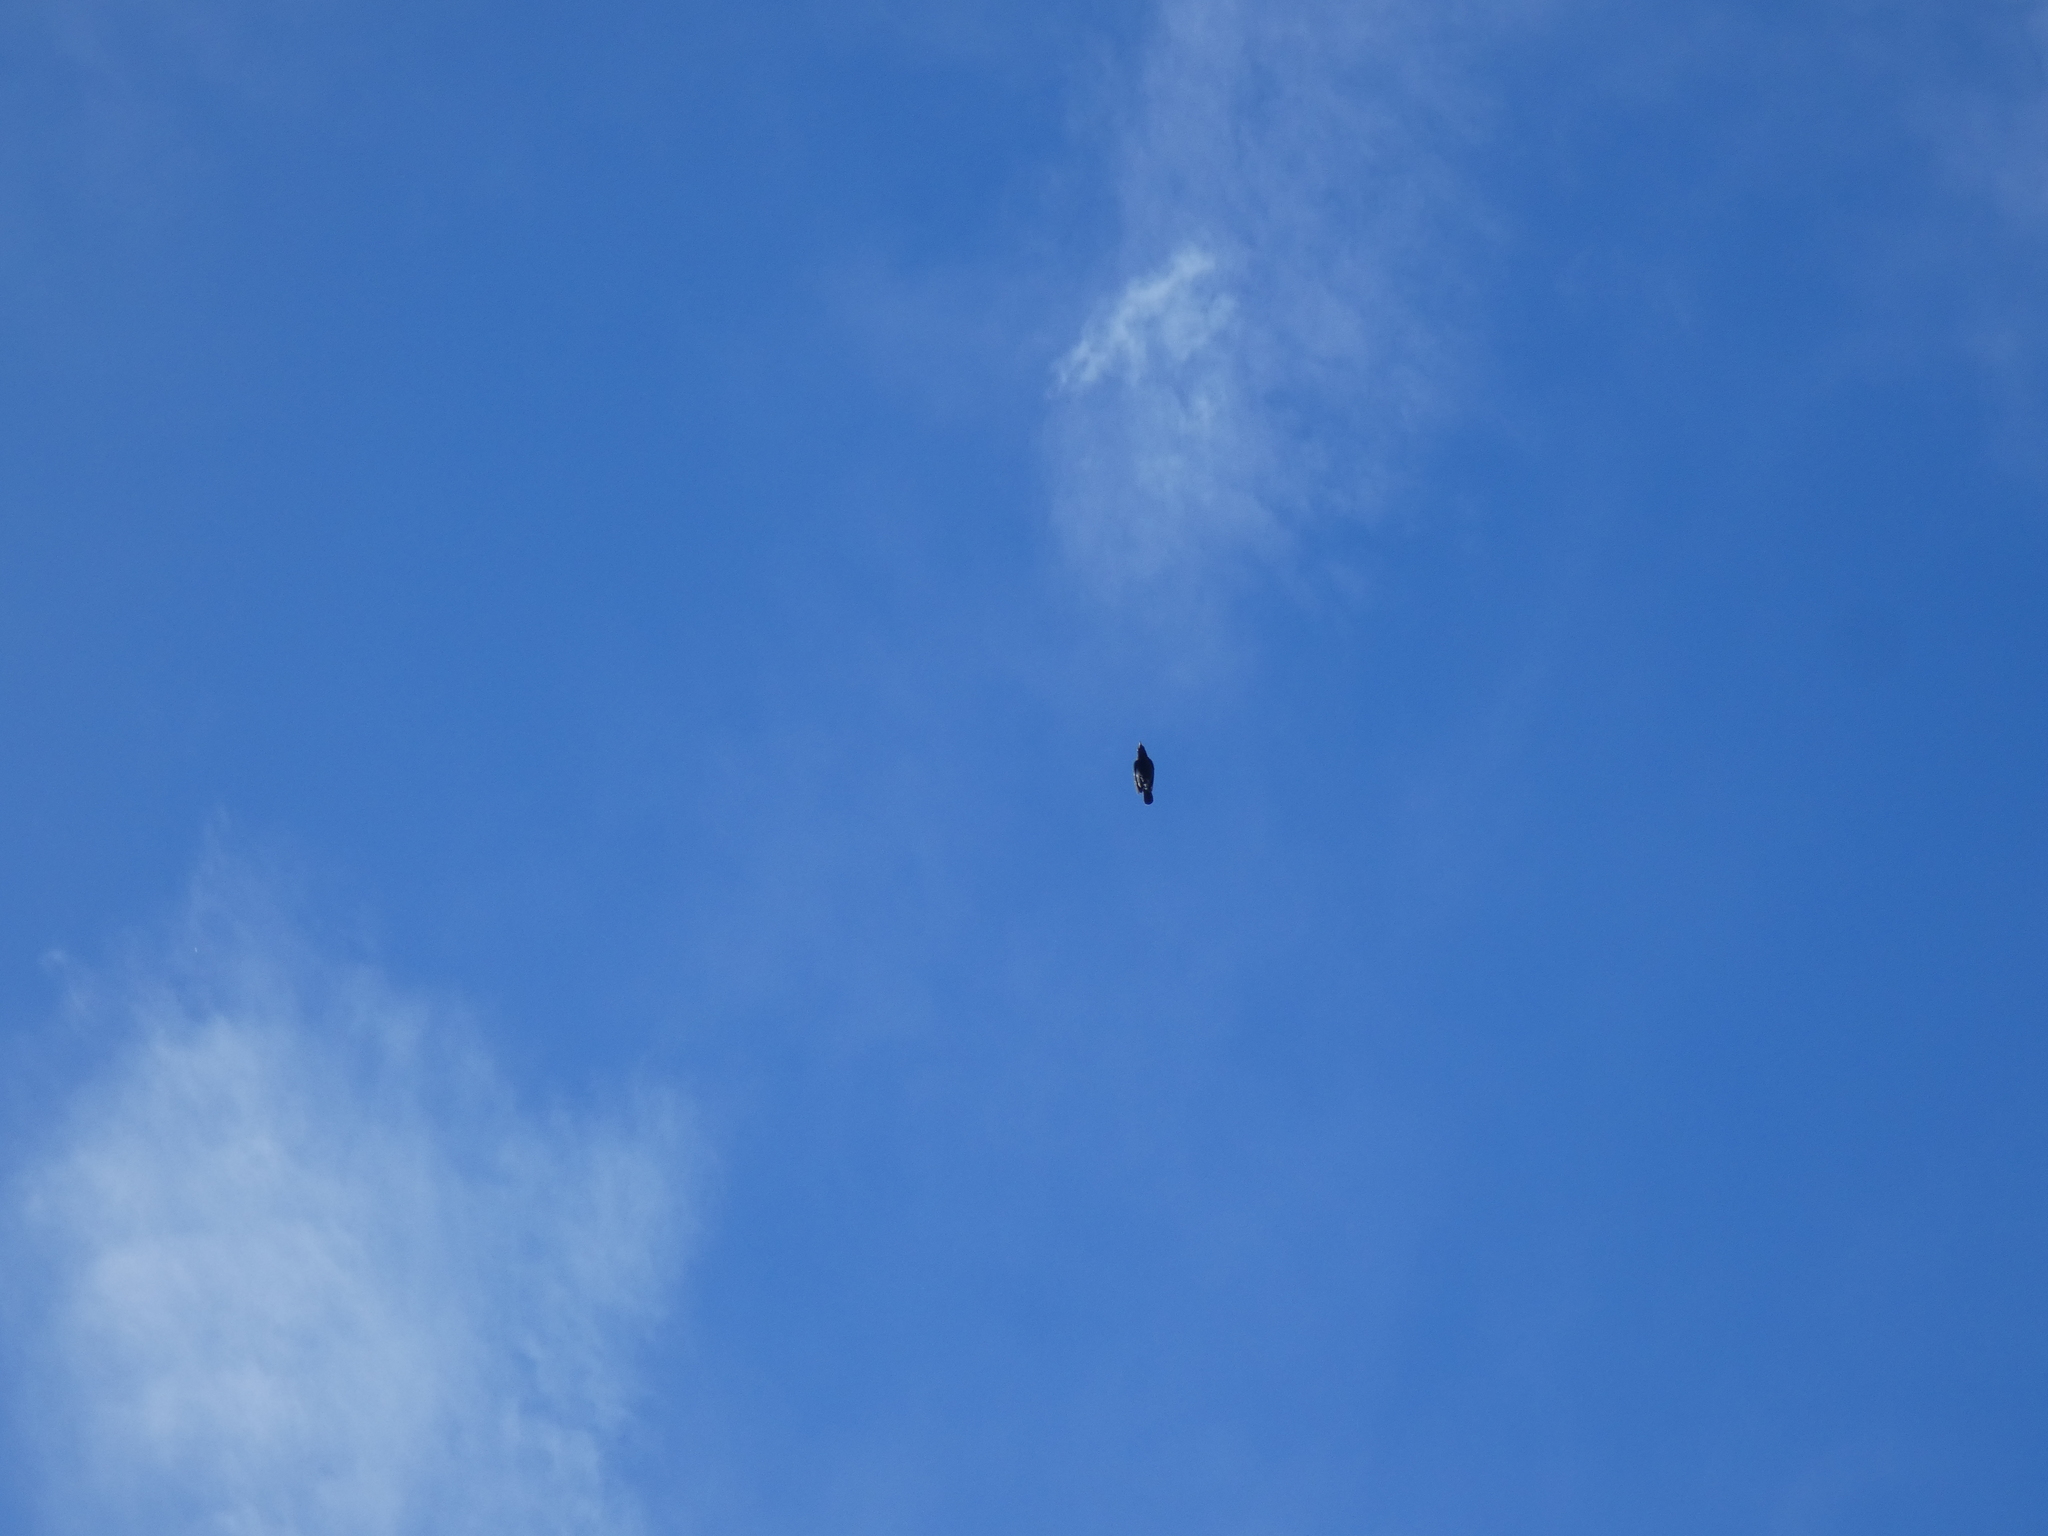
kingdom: Animalia
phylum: Chordata
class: Aves
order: Passeriformes
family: Corvidae
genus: Cyanocitta
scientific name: Cyanocitta stelleri
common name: Steller's jay
